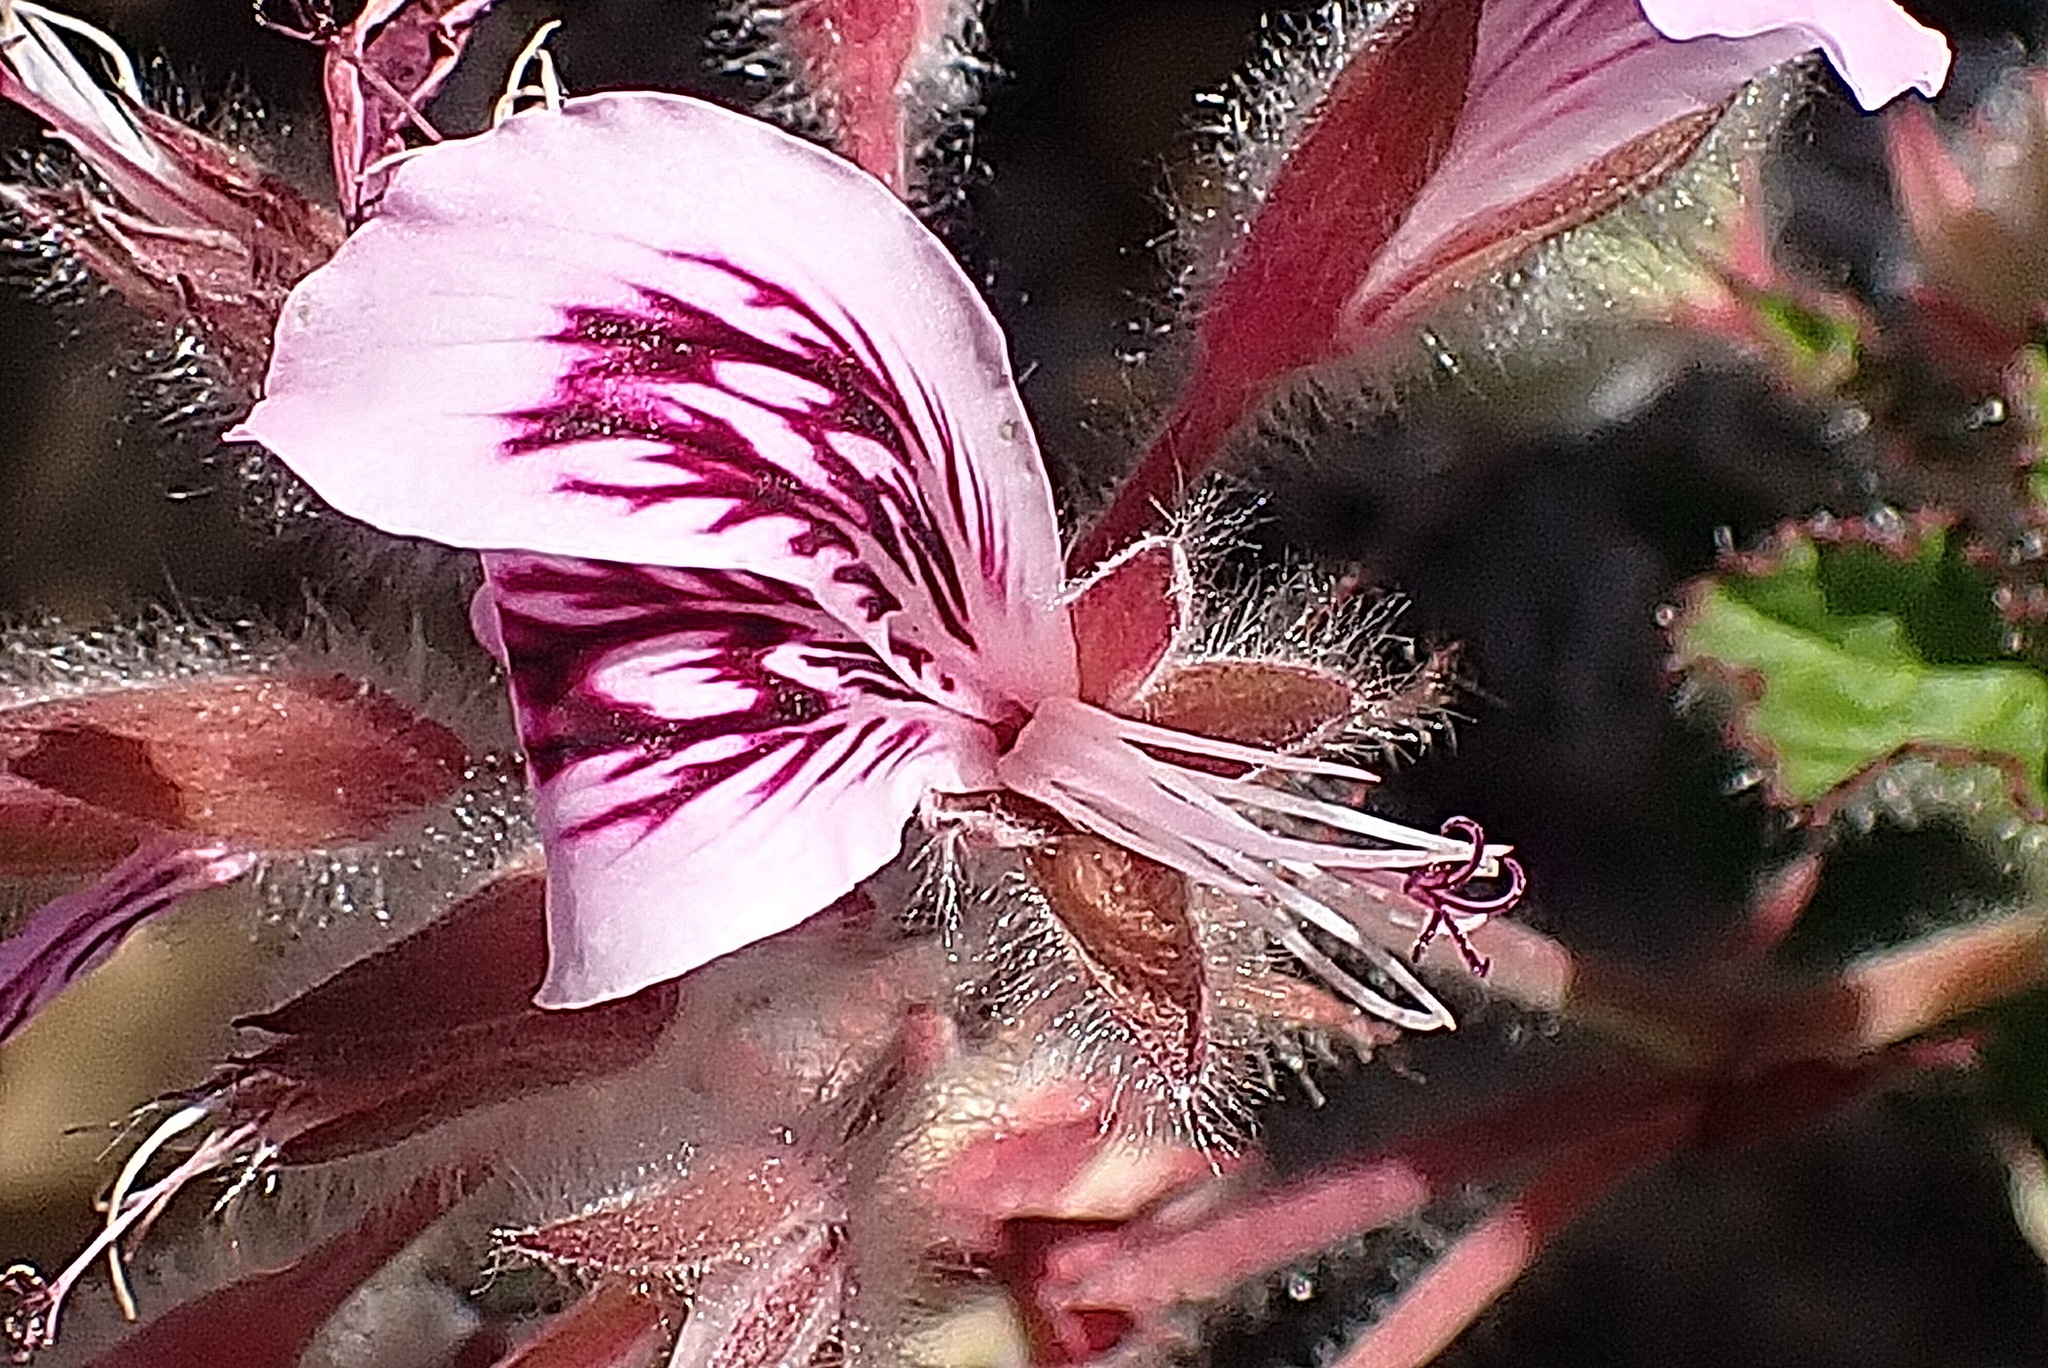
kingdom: Plantae
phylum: Tracheophyta
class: Magnoliopsida
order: Geraniales
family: Geraniaceae
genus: Pelargonium
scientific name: Pelargonium cordifolium
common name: Heart-leaf pelargonium
